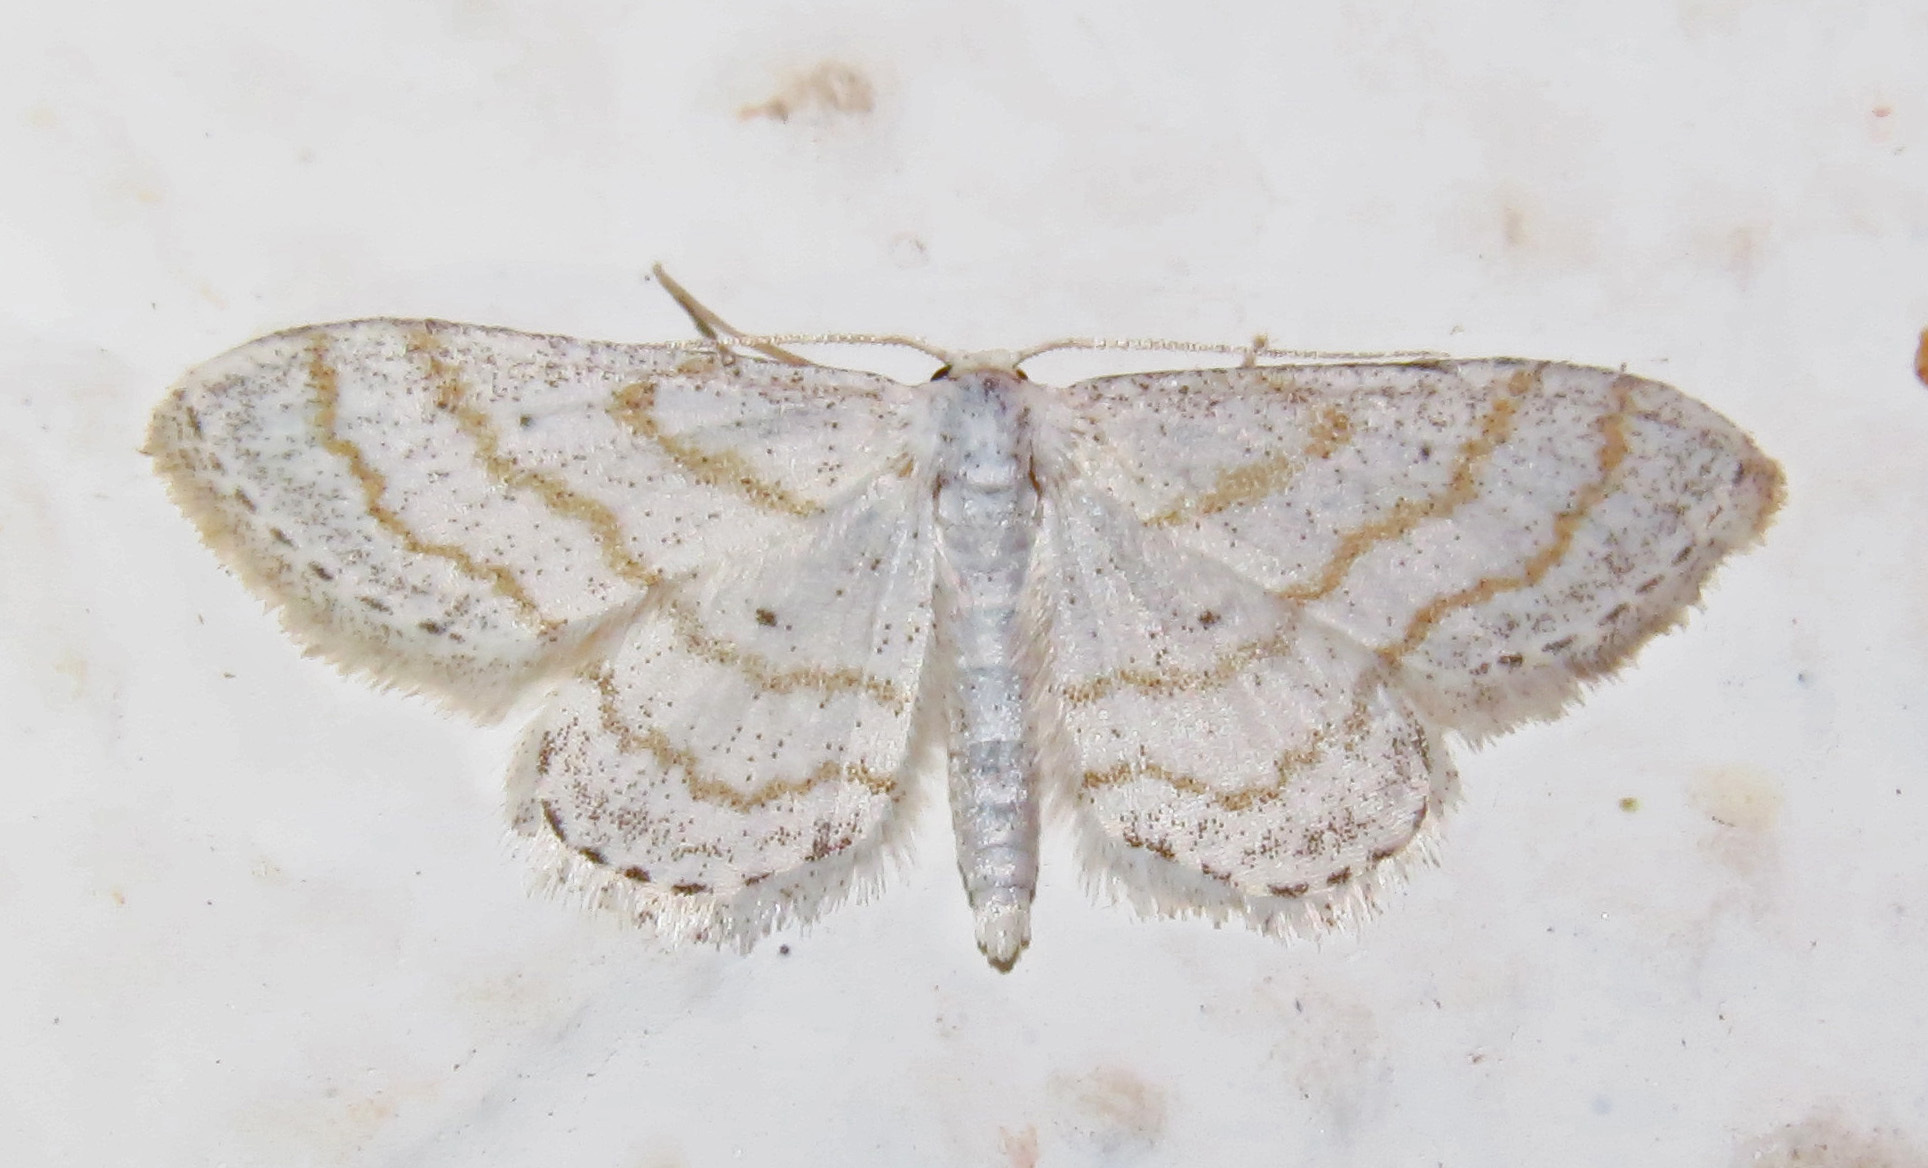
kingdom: Animalia
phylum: Arthropoda
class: Insecta
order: Lepidoptera
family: Geometridae
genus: Lobocleta
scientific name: Lobocleta peralbata
